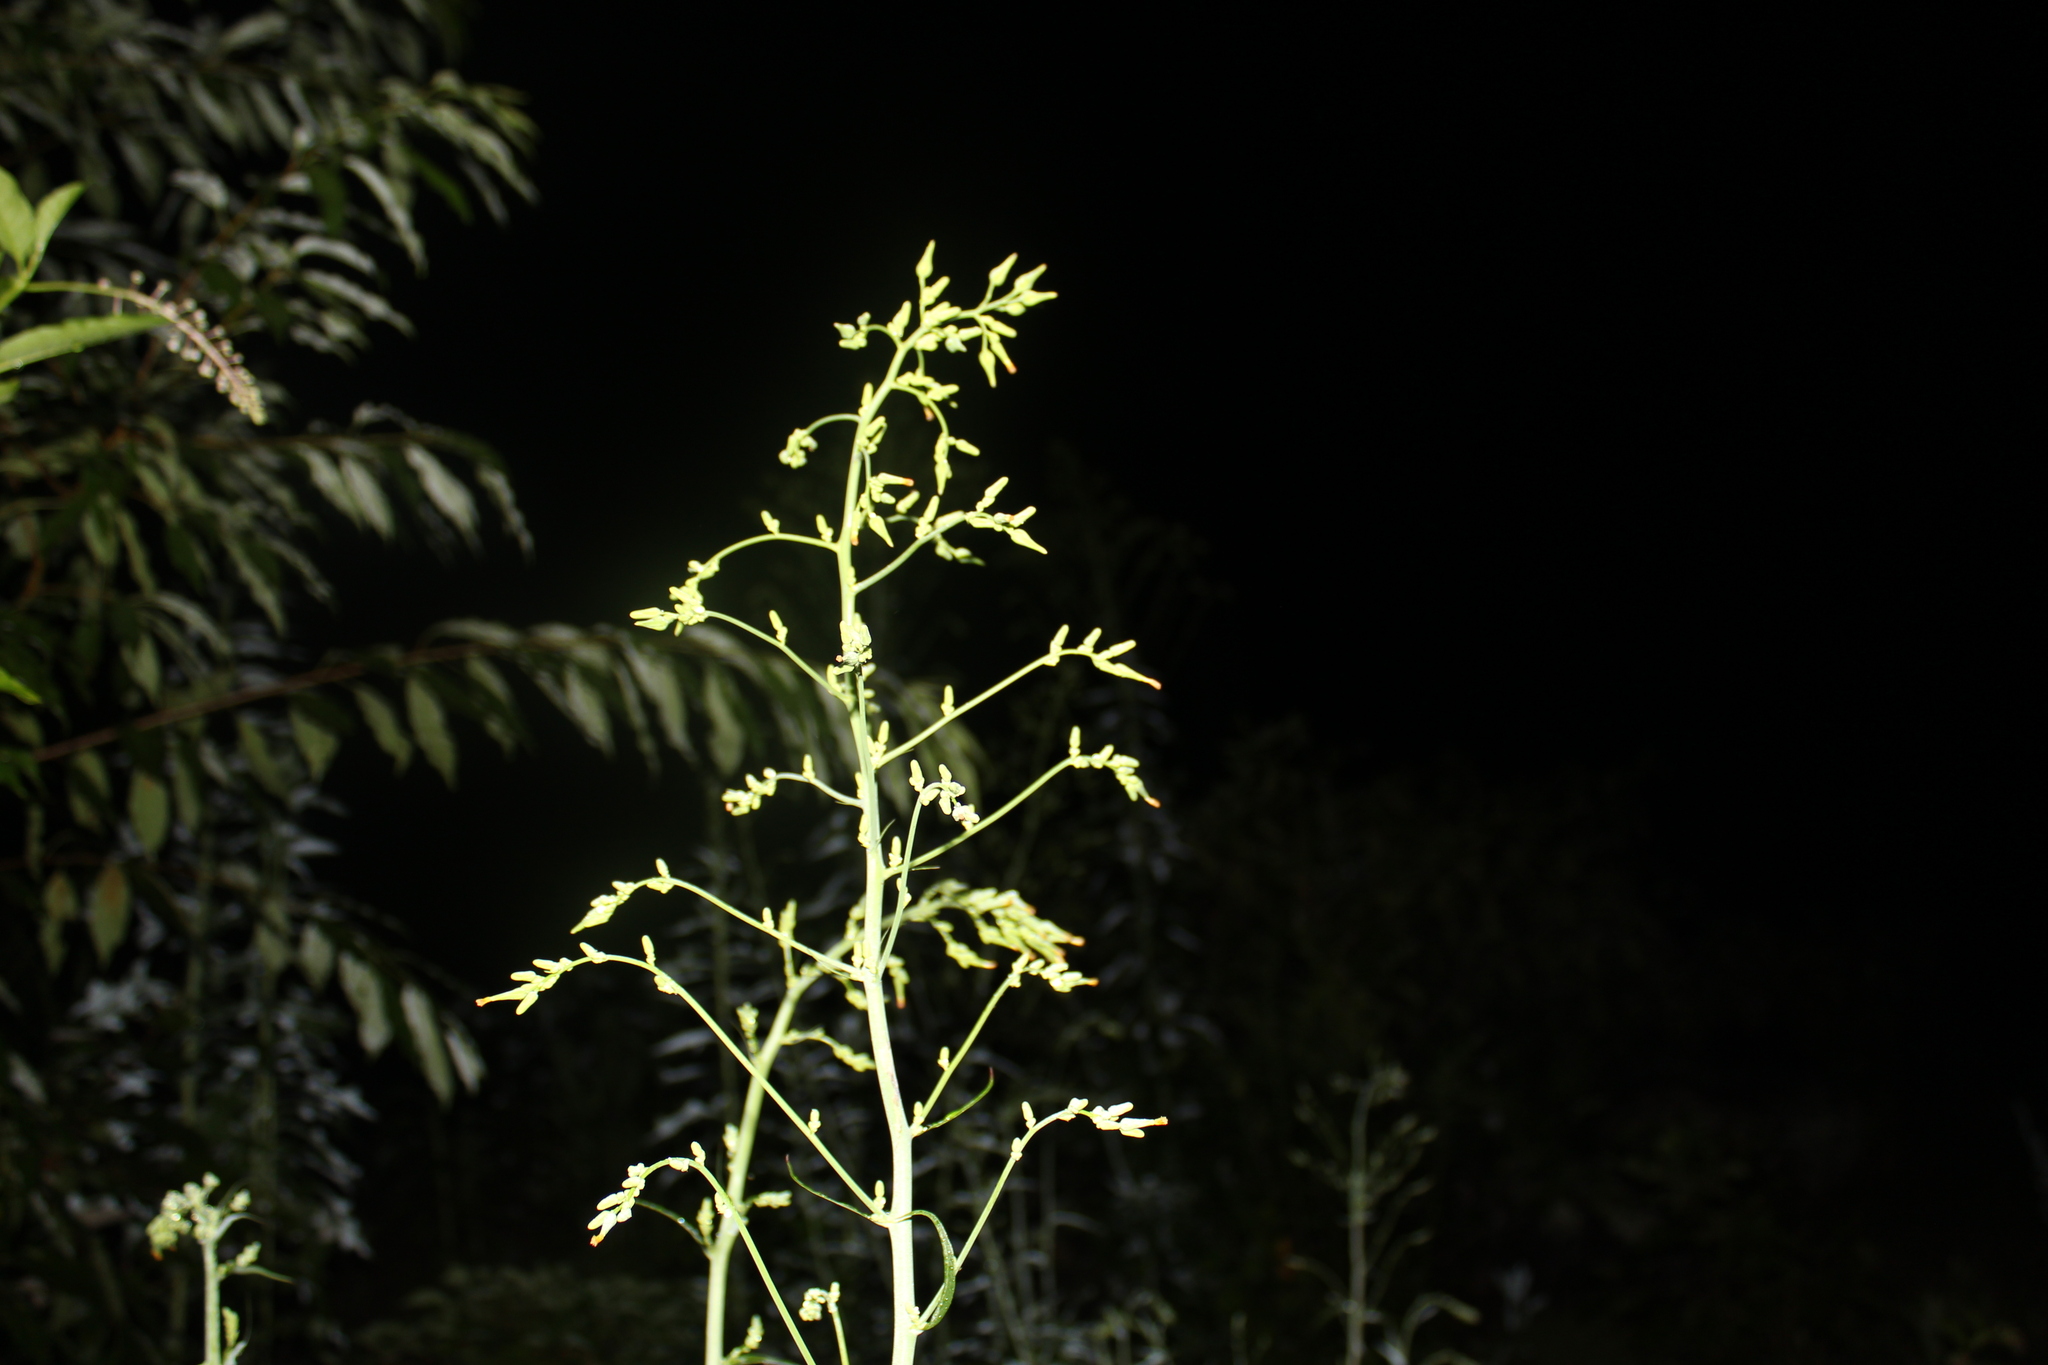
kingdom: Plantae
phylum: Tracheophyta
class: Magnoliopsida
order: Asterales
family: Asteraceae
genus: Lactuca
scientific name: Lactuca canadensis
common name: Canada lettuce
